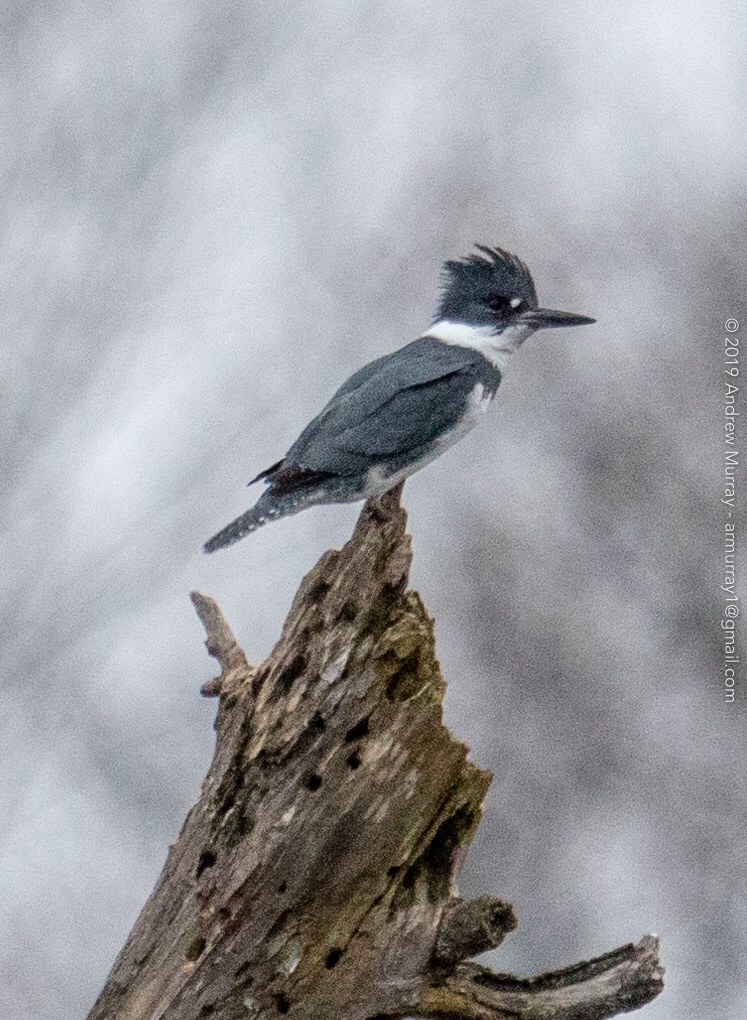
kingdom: Animalia
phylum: Chordata
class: Aves
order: Coraciiformes
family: Alcedinidae
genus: Megaceryle
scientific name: Megaceryle alcyon
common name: Belted kingfisher
